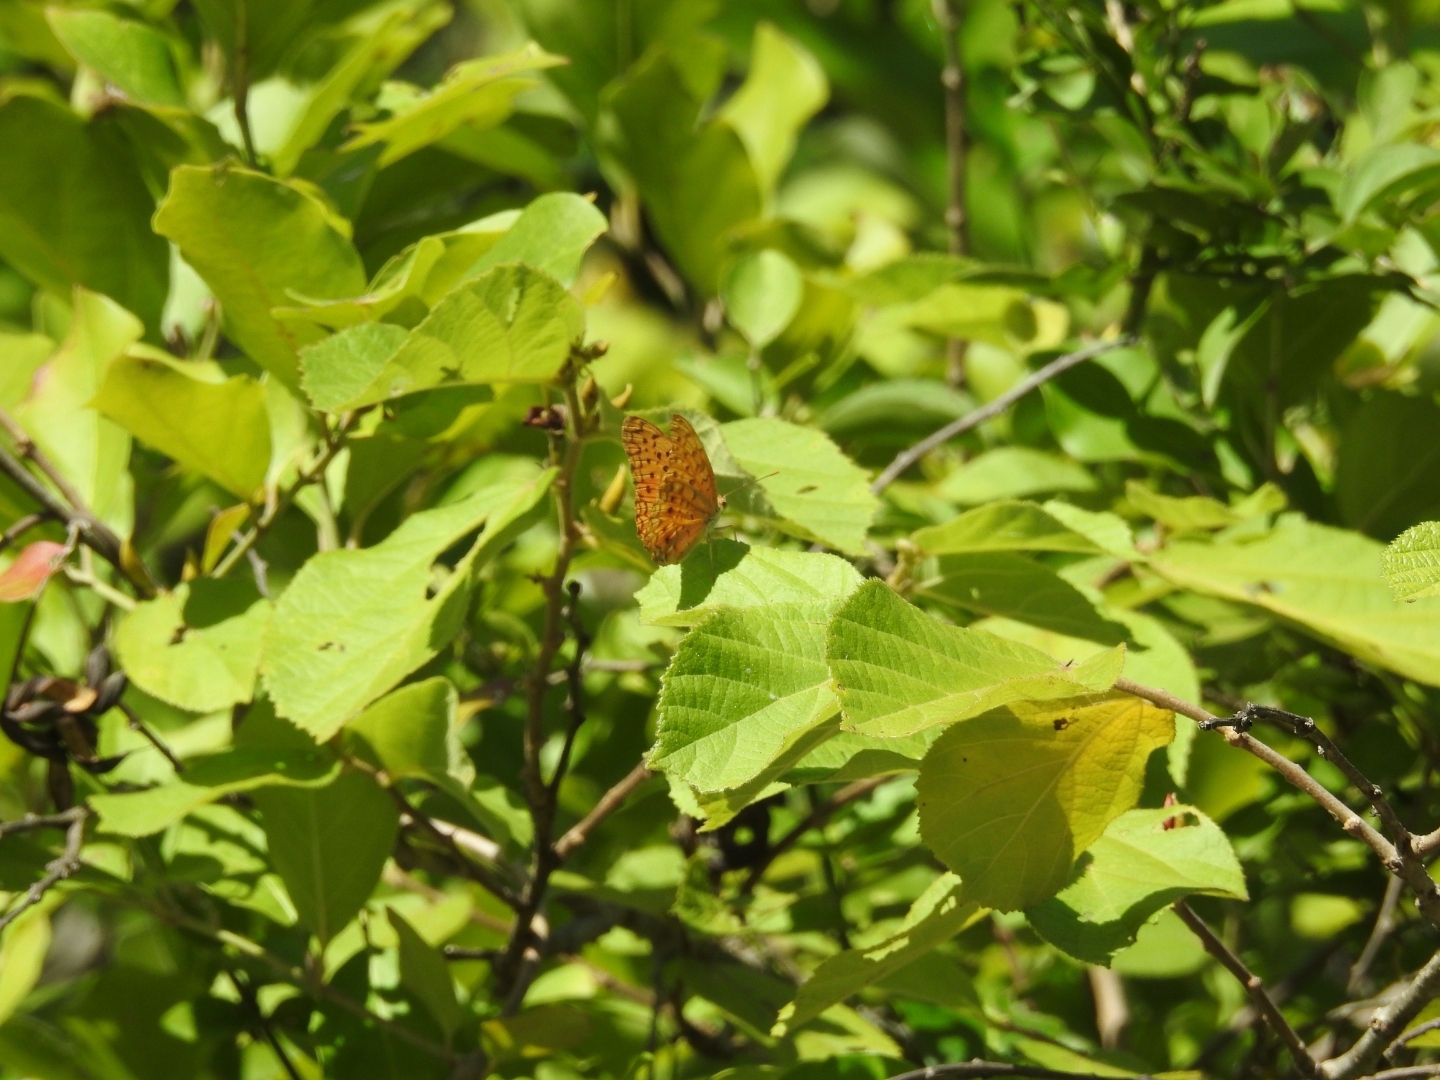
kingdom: Animalia
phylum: Arthropoda
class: Insecta
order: Lepidoptera
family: Nymphalidae
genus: Phalanta
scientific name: Phalanta phalantha
